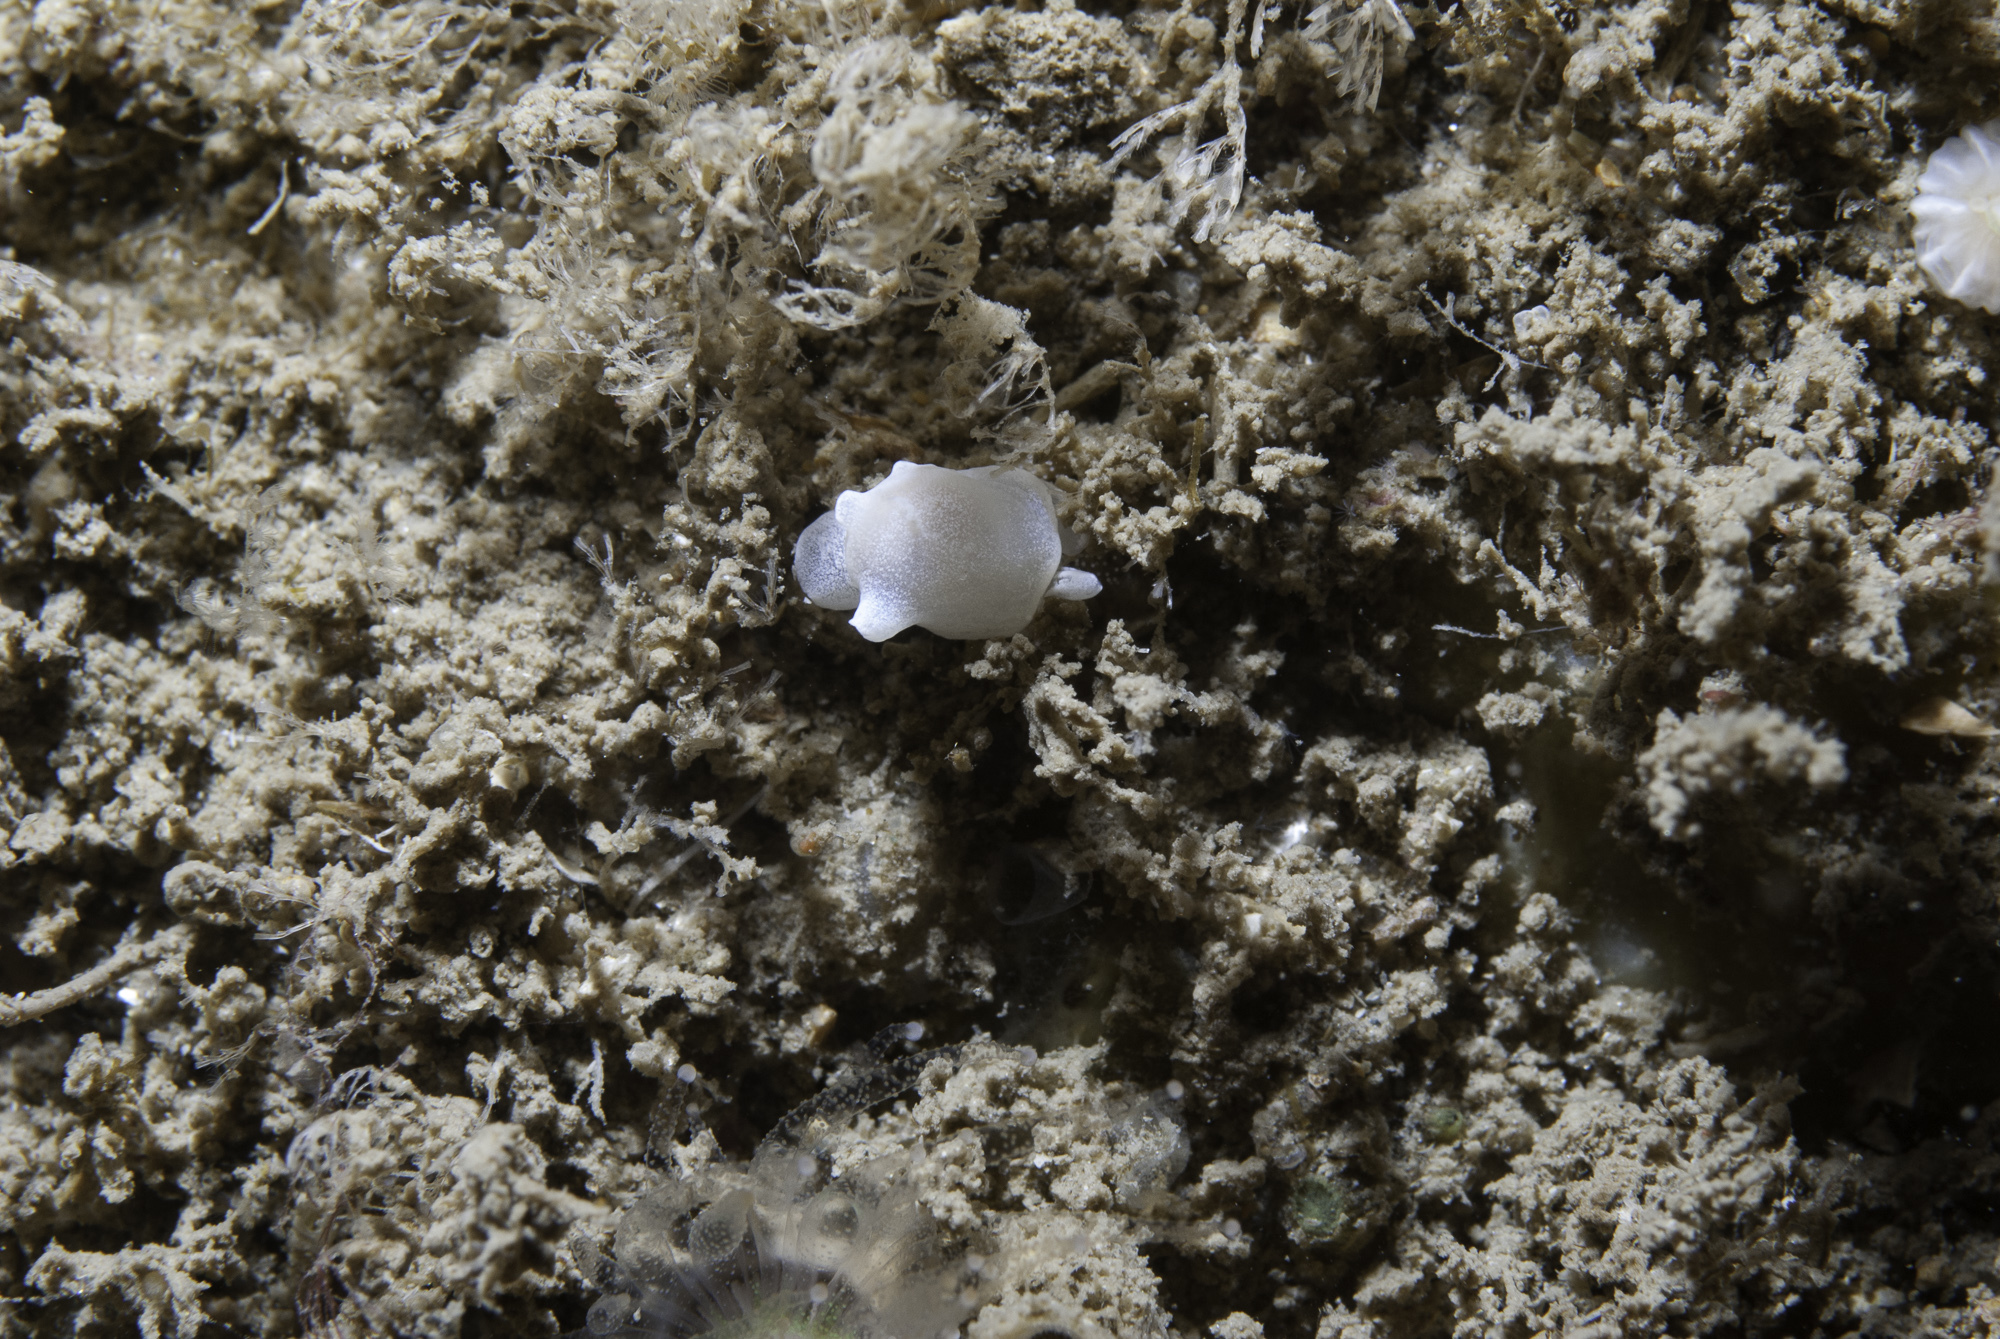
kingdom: Animalia
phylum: Mollusca
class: Gastropoda
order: Cephalaspidea
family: Colpodaspididae
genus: Colpodaspis
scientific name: Colpodaspis pusilla
